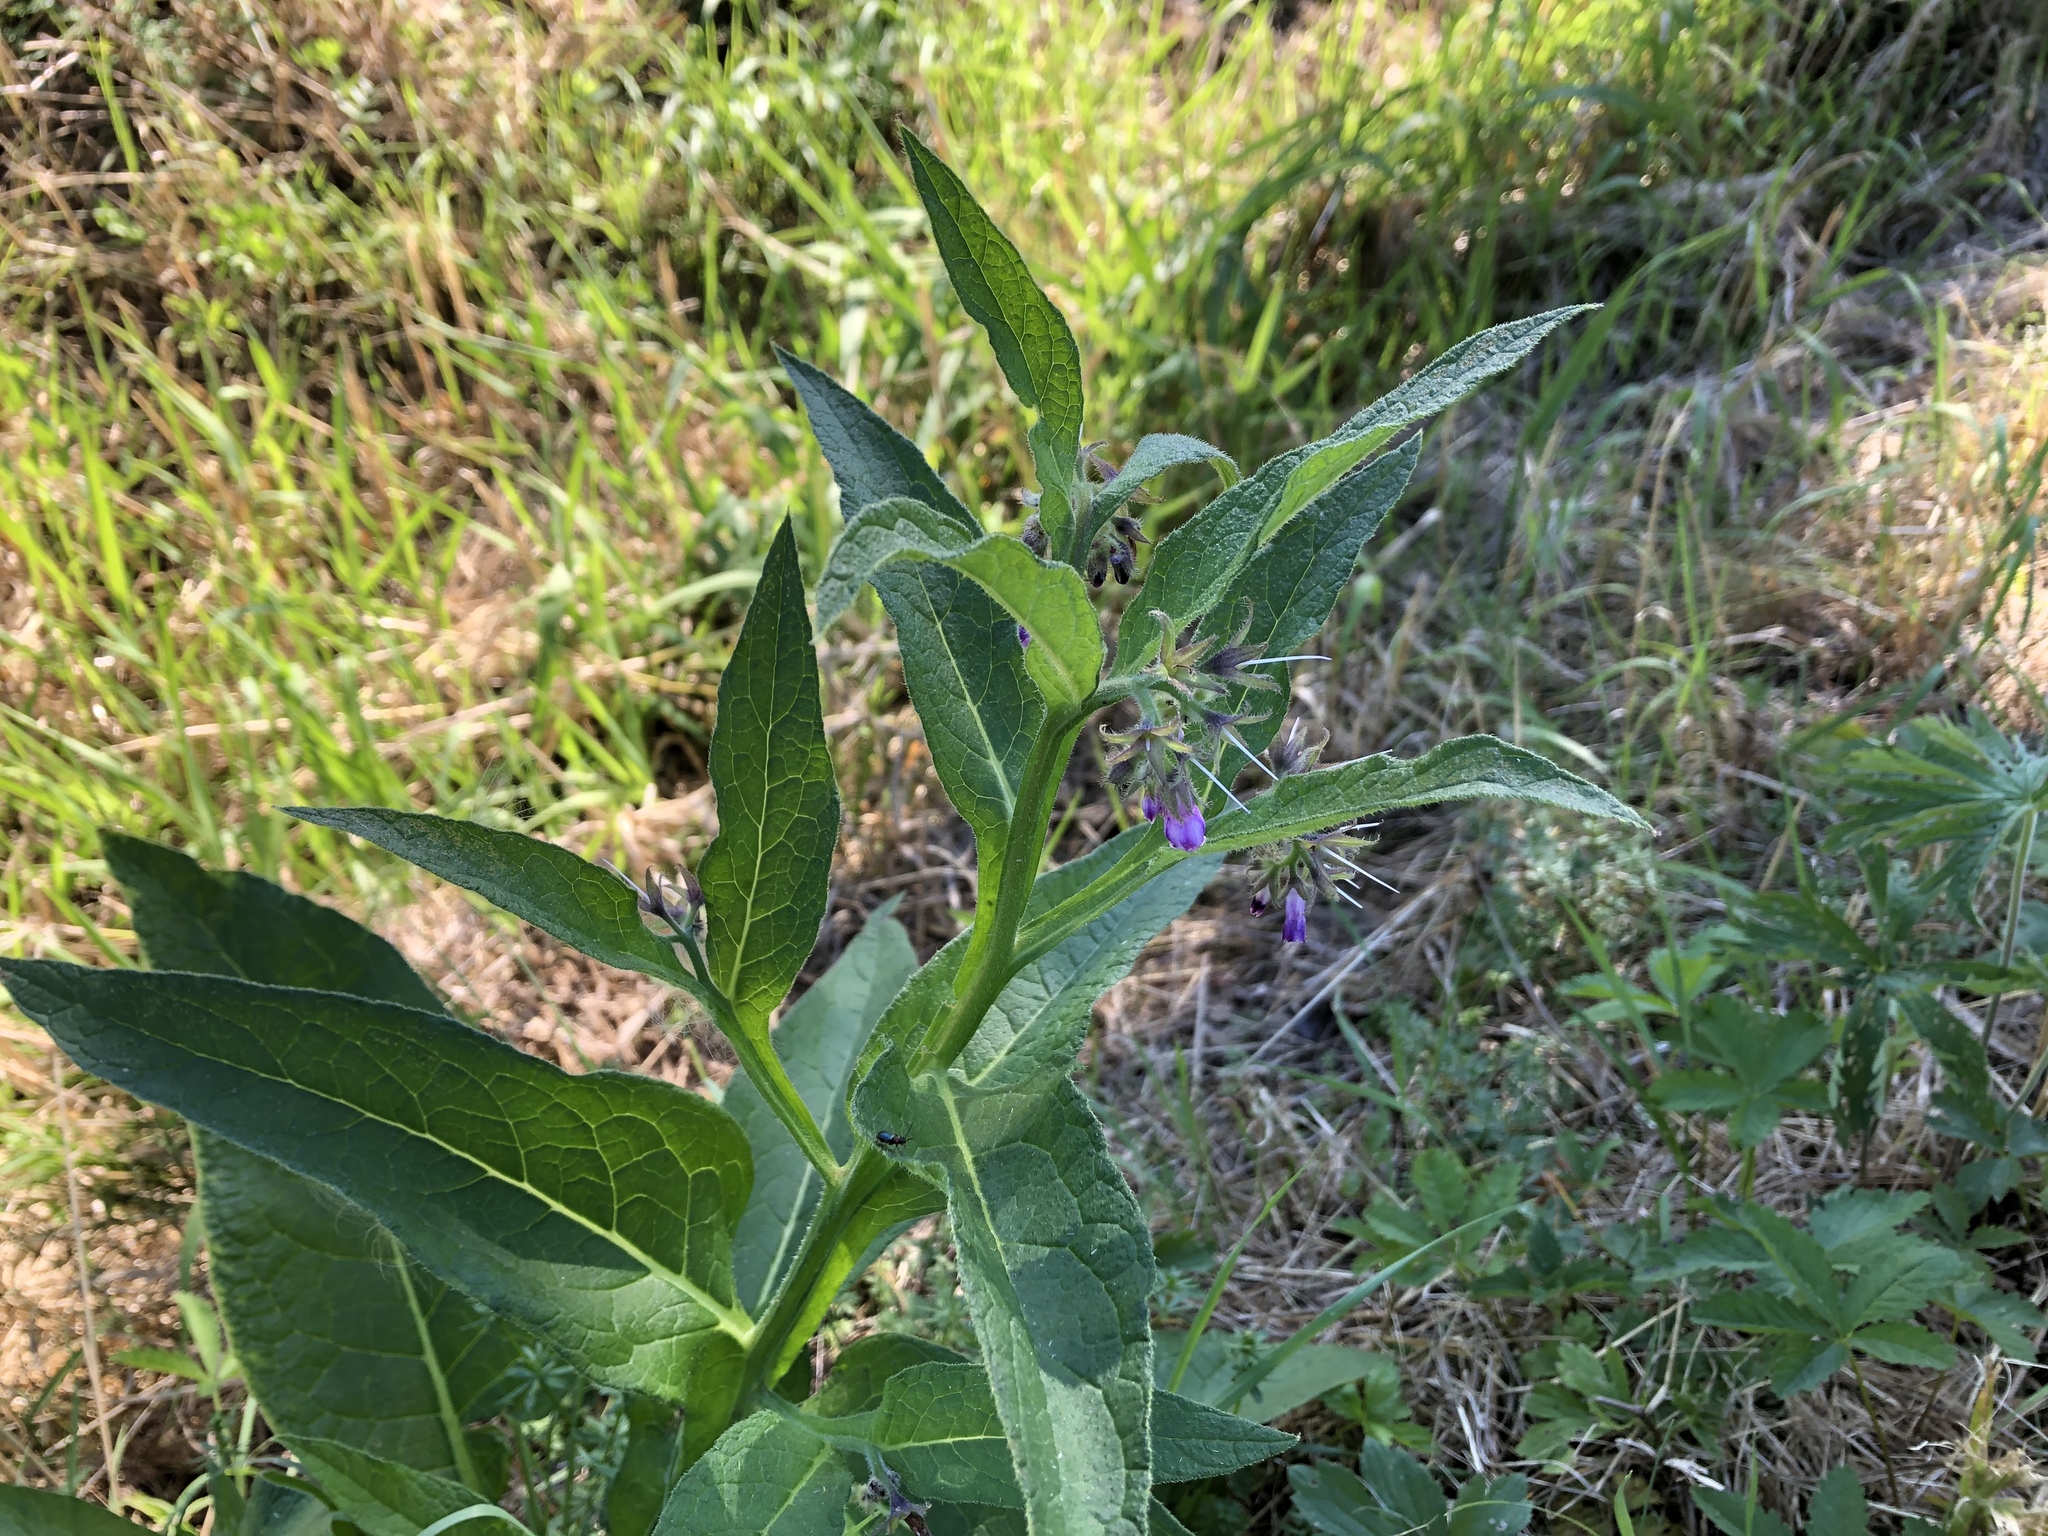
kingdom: Plantae
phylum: Tracheophyta
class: Magnoliopsida
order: Boraginales
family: Boraginaceae
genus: Symphytum
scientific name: Symphytum officinale
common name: Common comfrey
